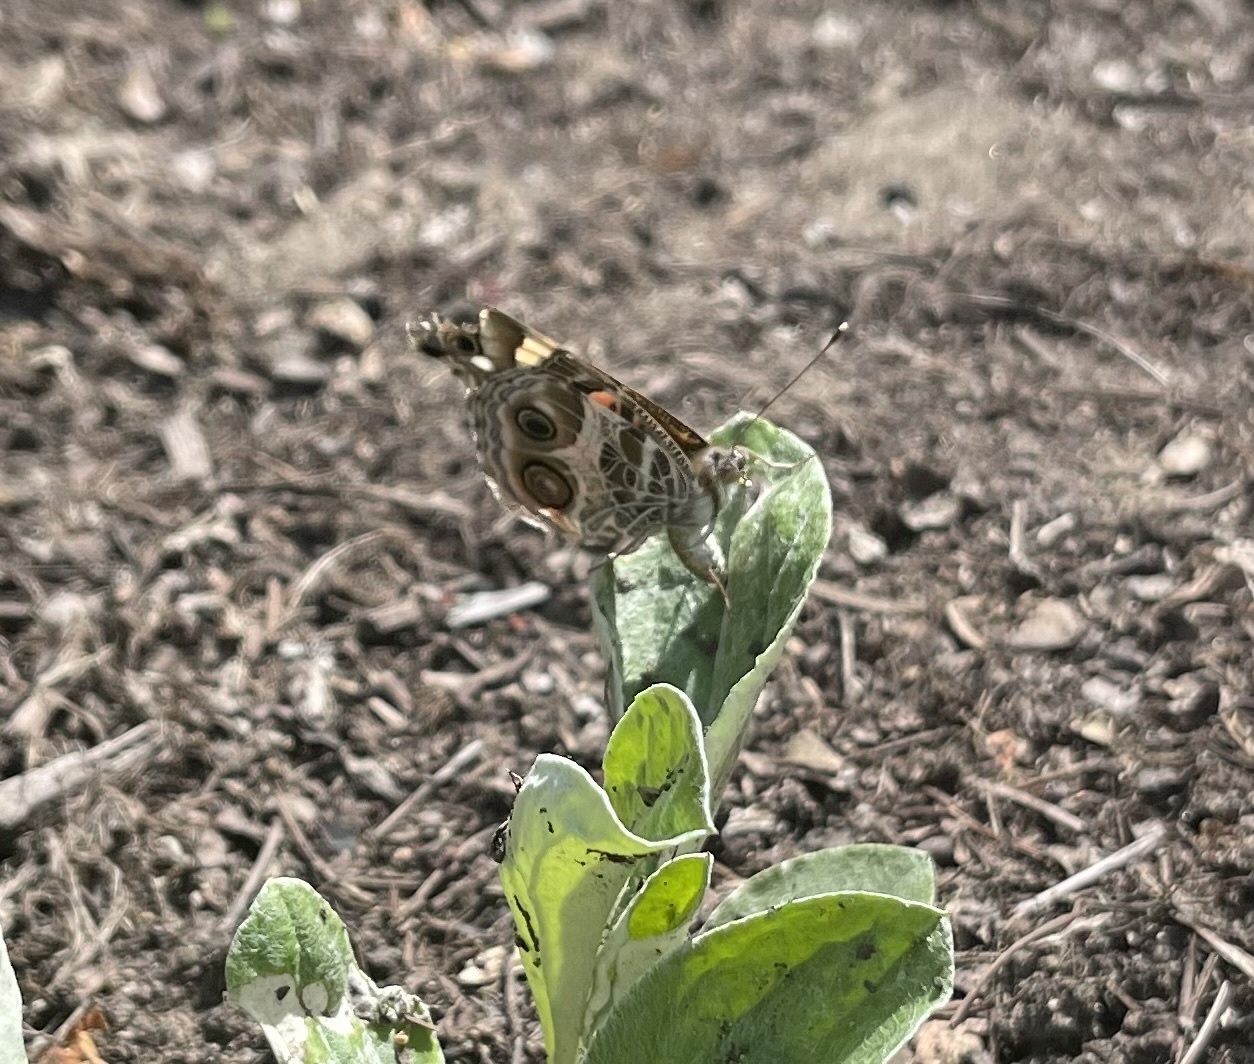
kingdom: Animalia
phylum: Arthropoda
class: Insecta
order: Lepidoptera
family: Nymphalidae
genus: Vanessa
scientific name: Vanessa virginiensis
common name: American lady
